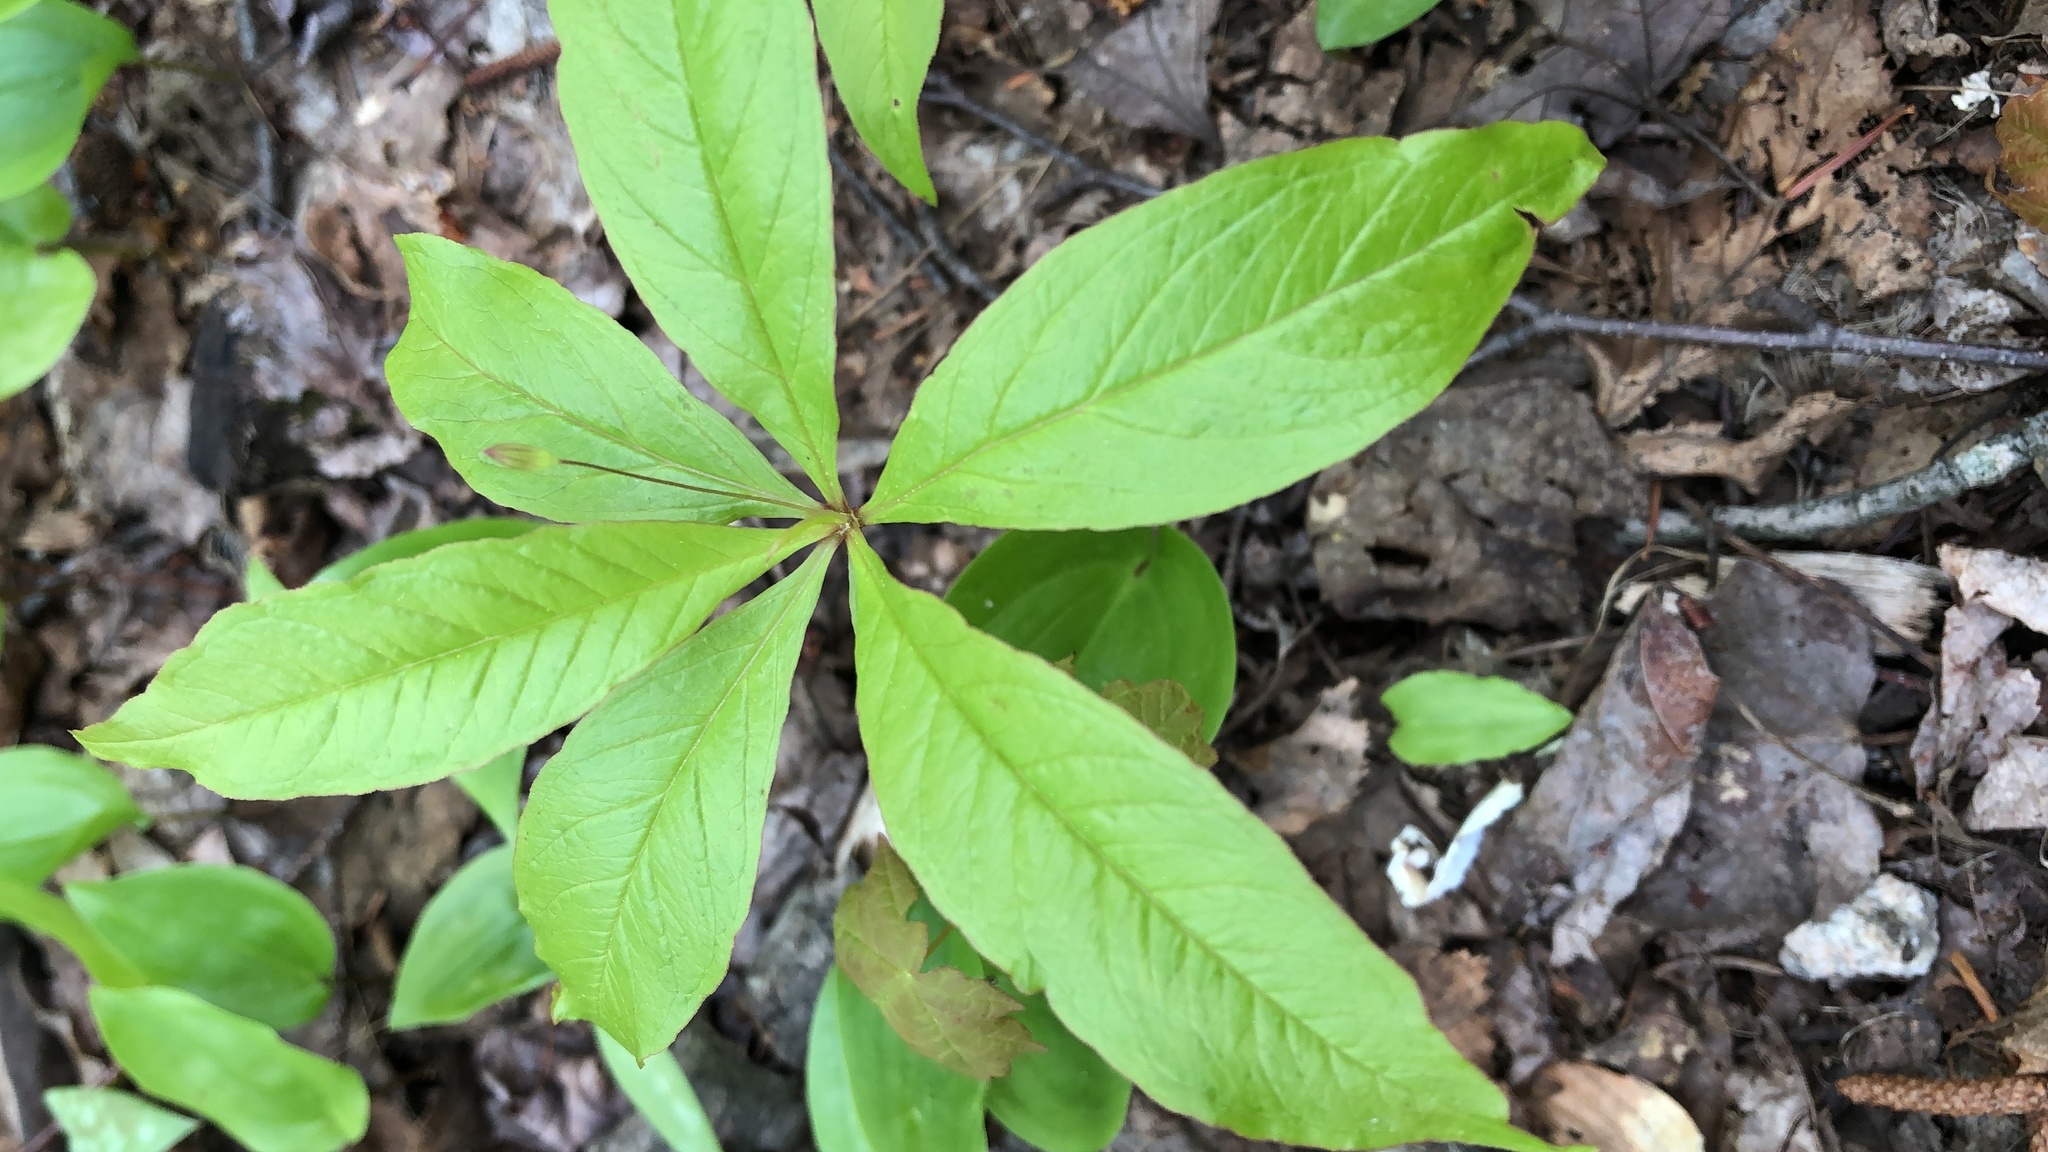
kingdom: Plantae
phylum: Tracheophyta
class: Magnoliopsida
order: Ericales
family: Primulaceae
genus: Lysimachia
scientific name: Lysimachia borealis
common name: American starflower
